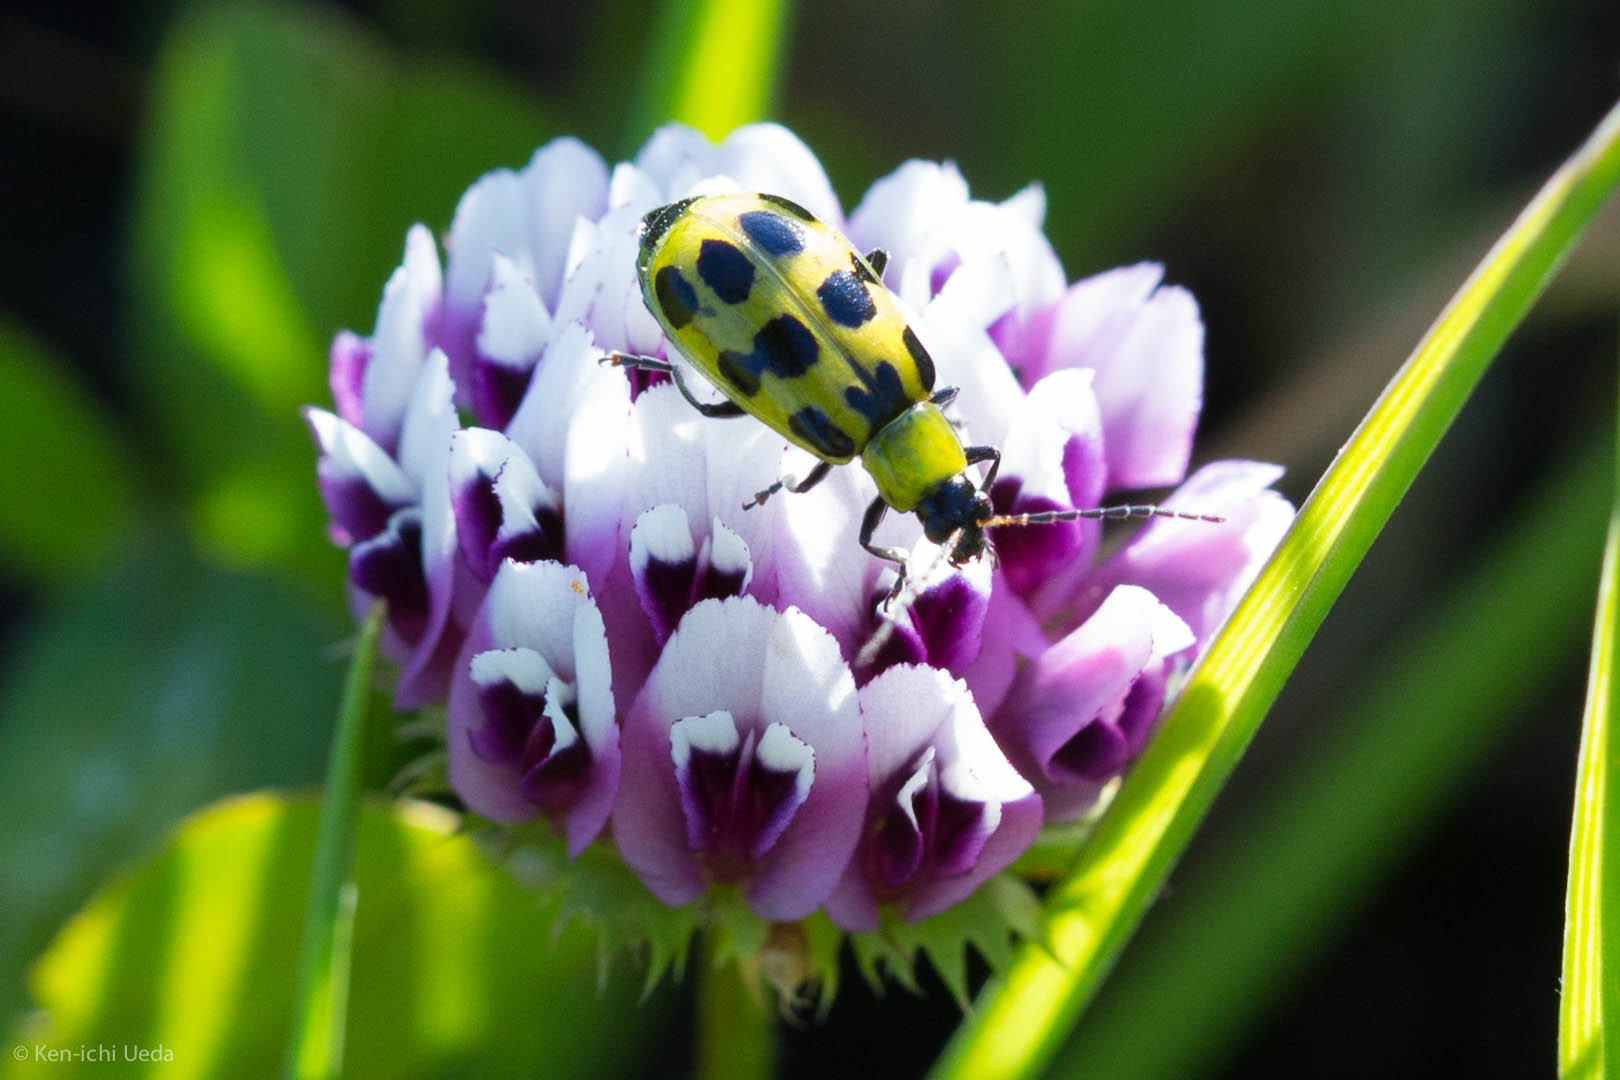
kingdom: Animalia
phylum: Arthropoda
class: Insecta
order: Coleoptera
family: Chrysomelidae
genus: Diabrotica
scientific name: Diabrotica undecimpunctata
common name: Spotted cucumber beetle
